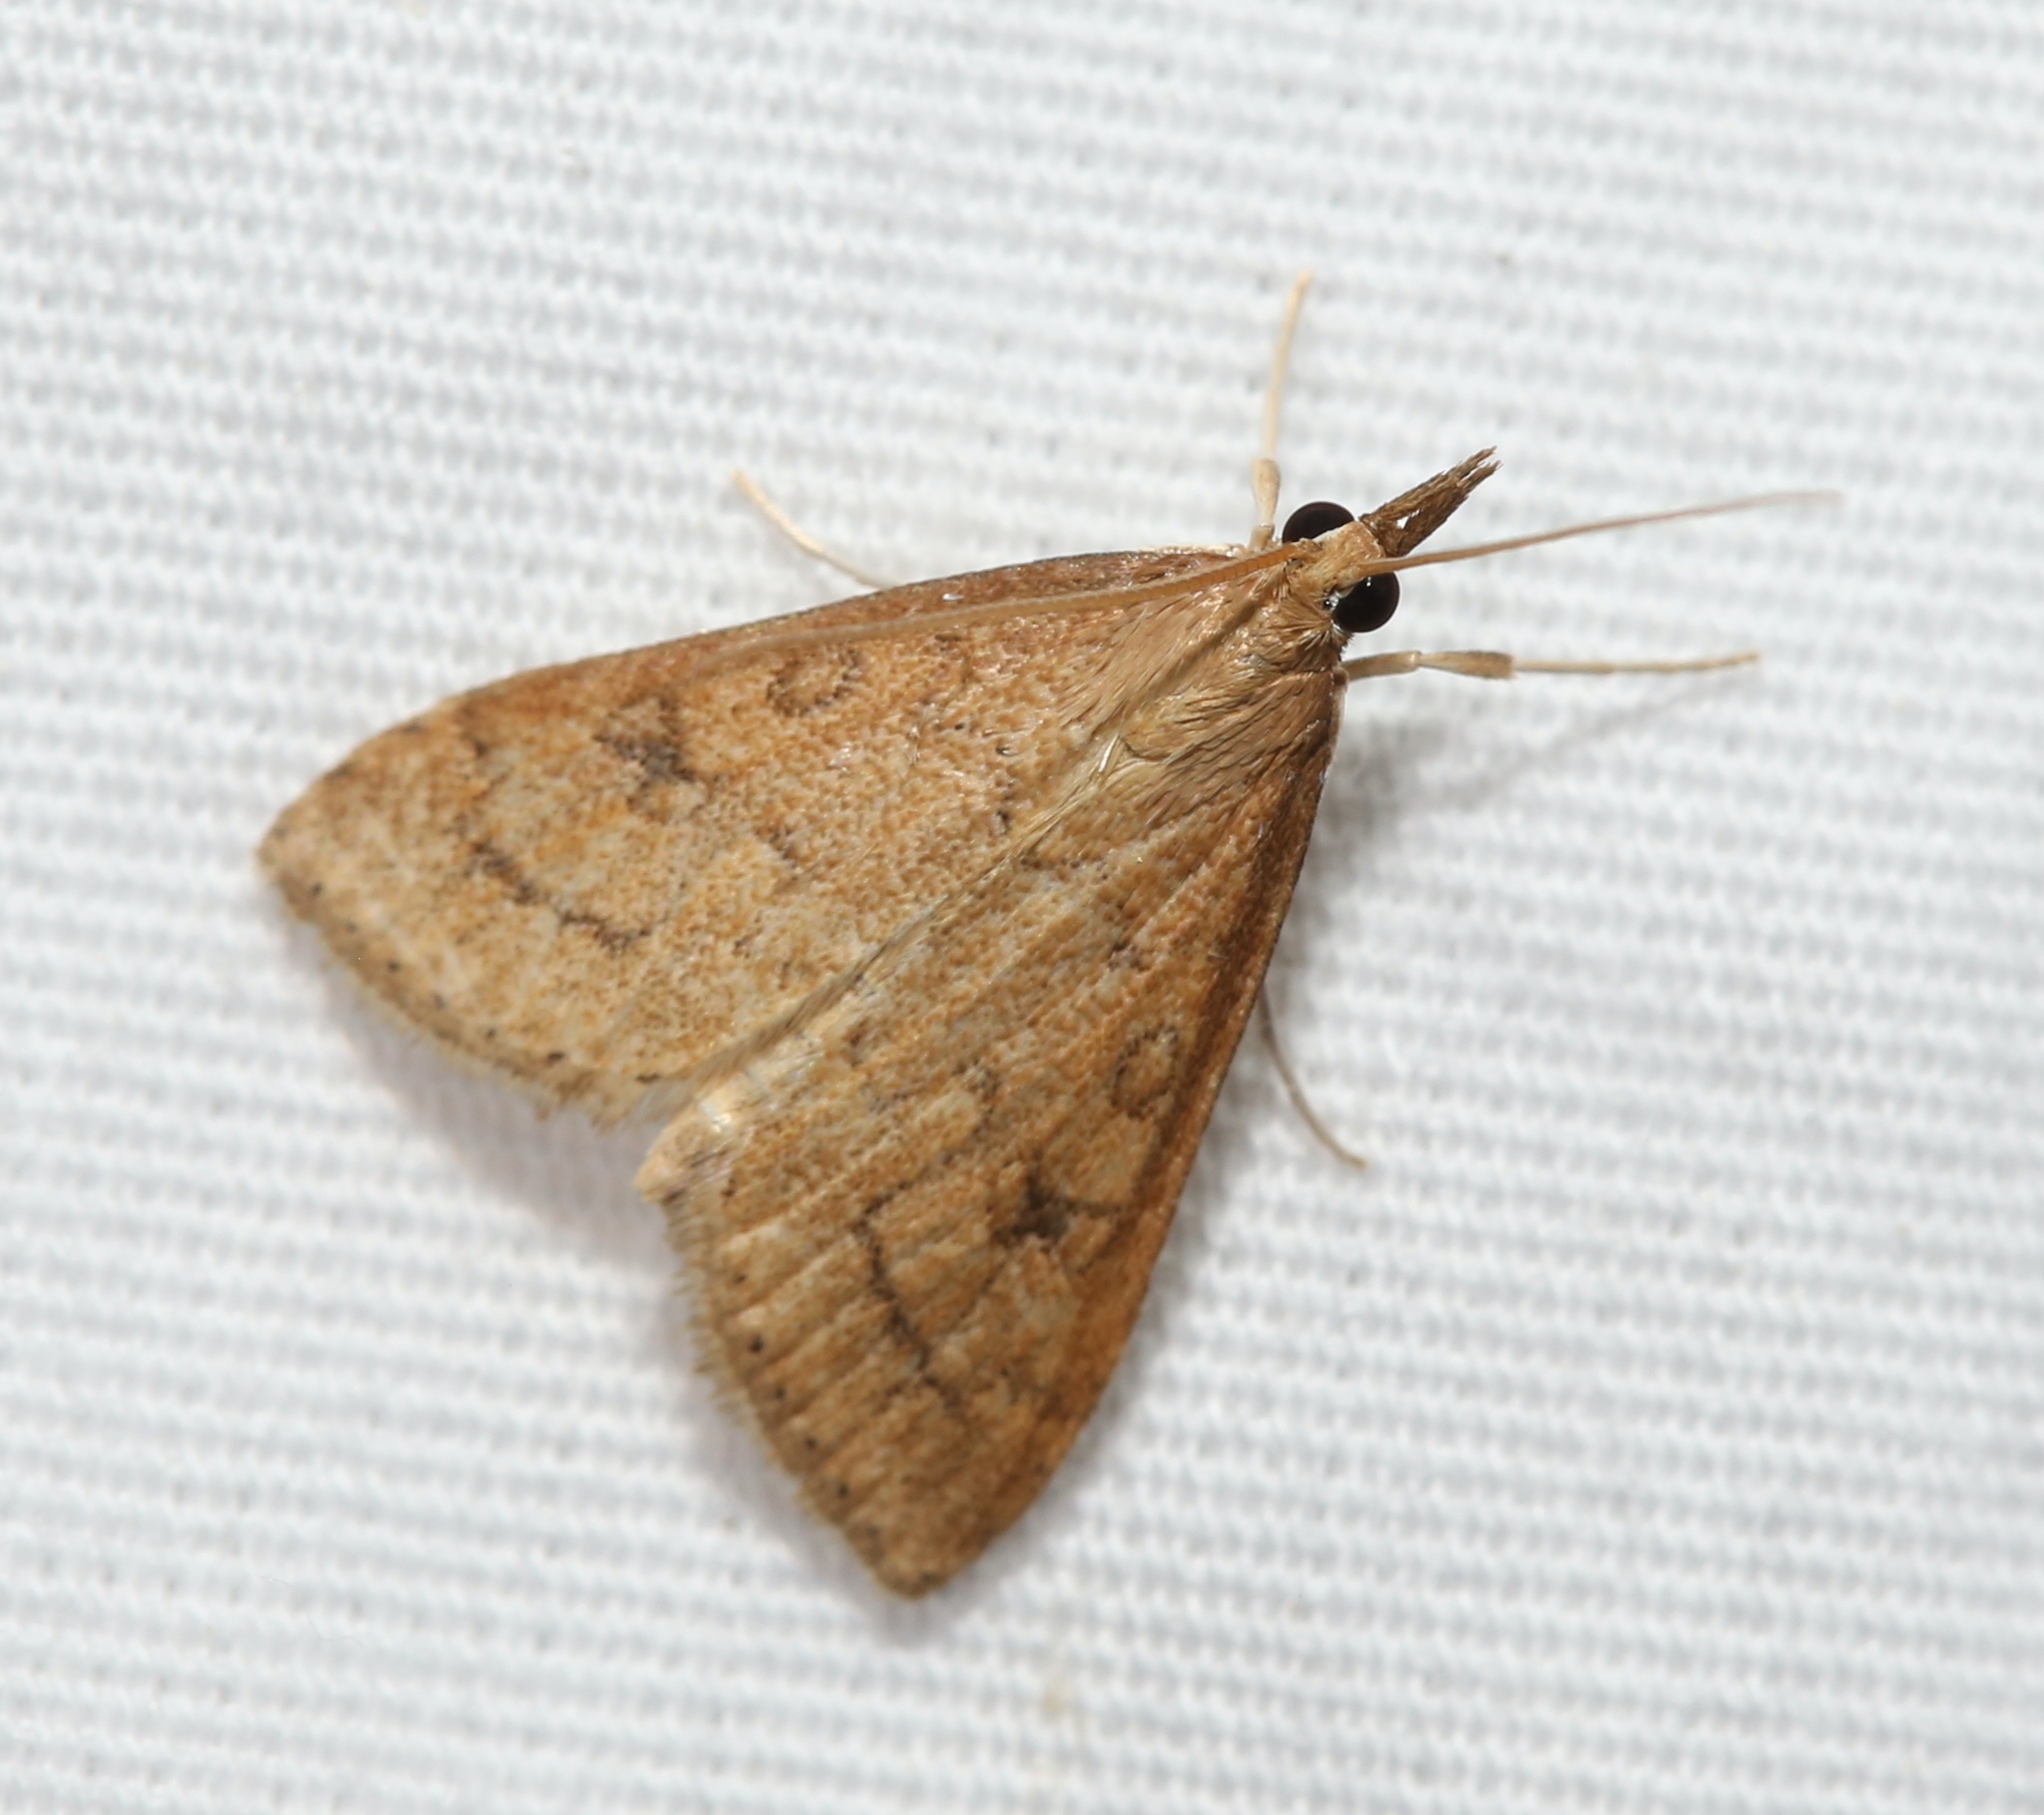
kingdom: Animalia
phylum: Arthropoda
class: Insecta
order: Lepidoptera
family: Crambidae
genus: Udea
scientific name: Udea rubigalis
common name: Celery leaftier moth
